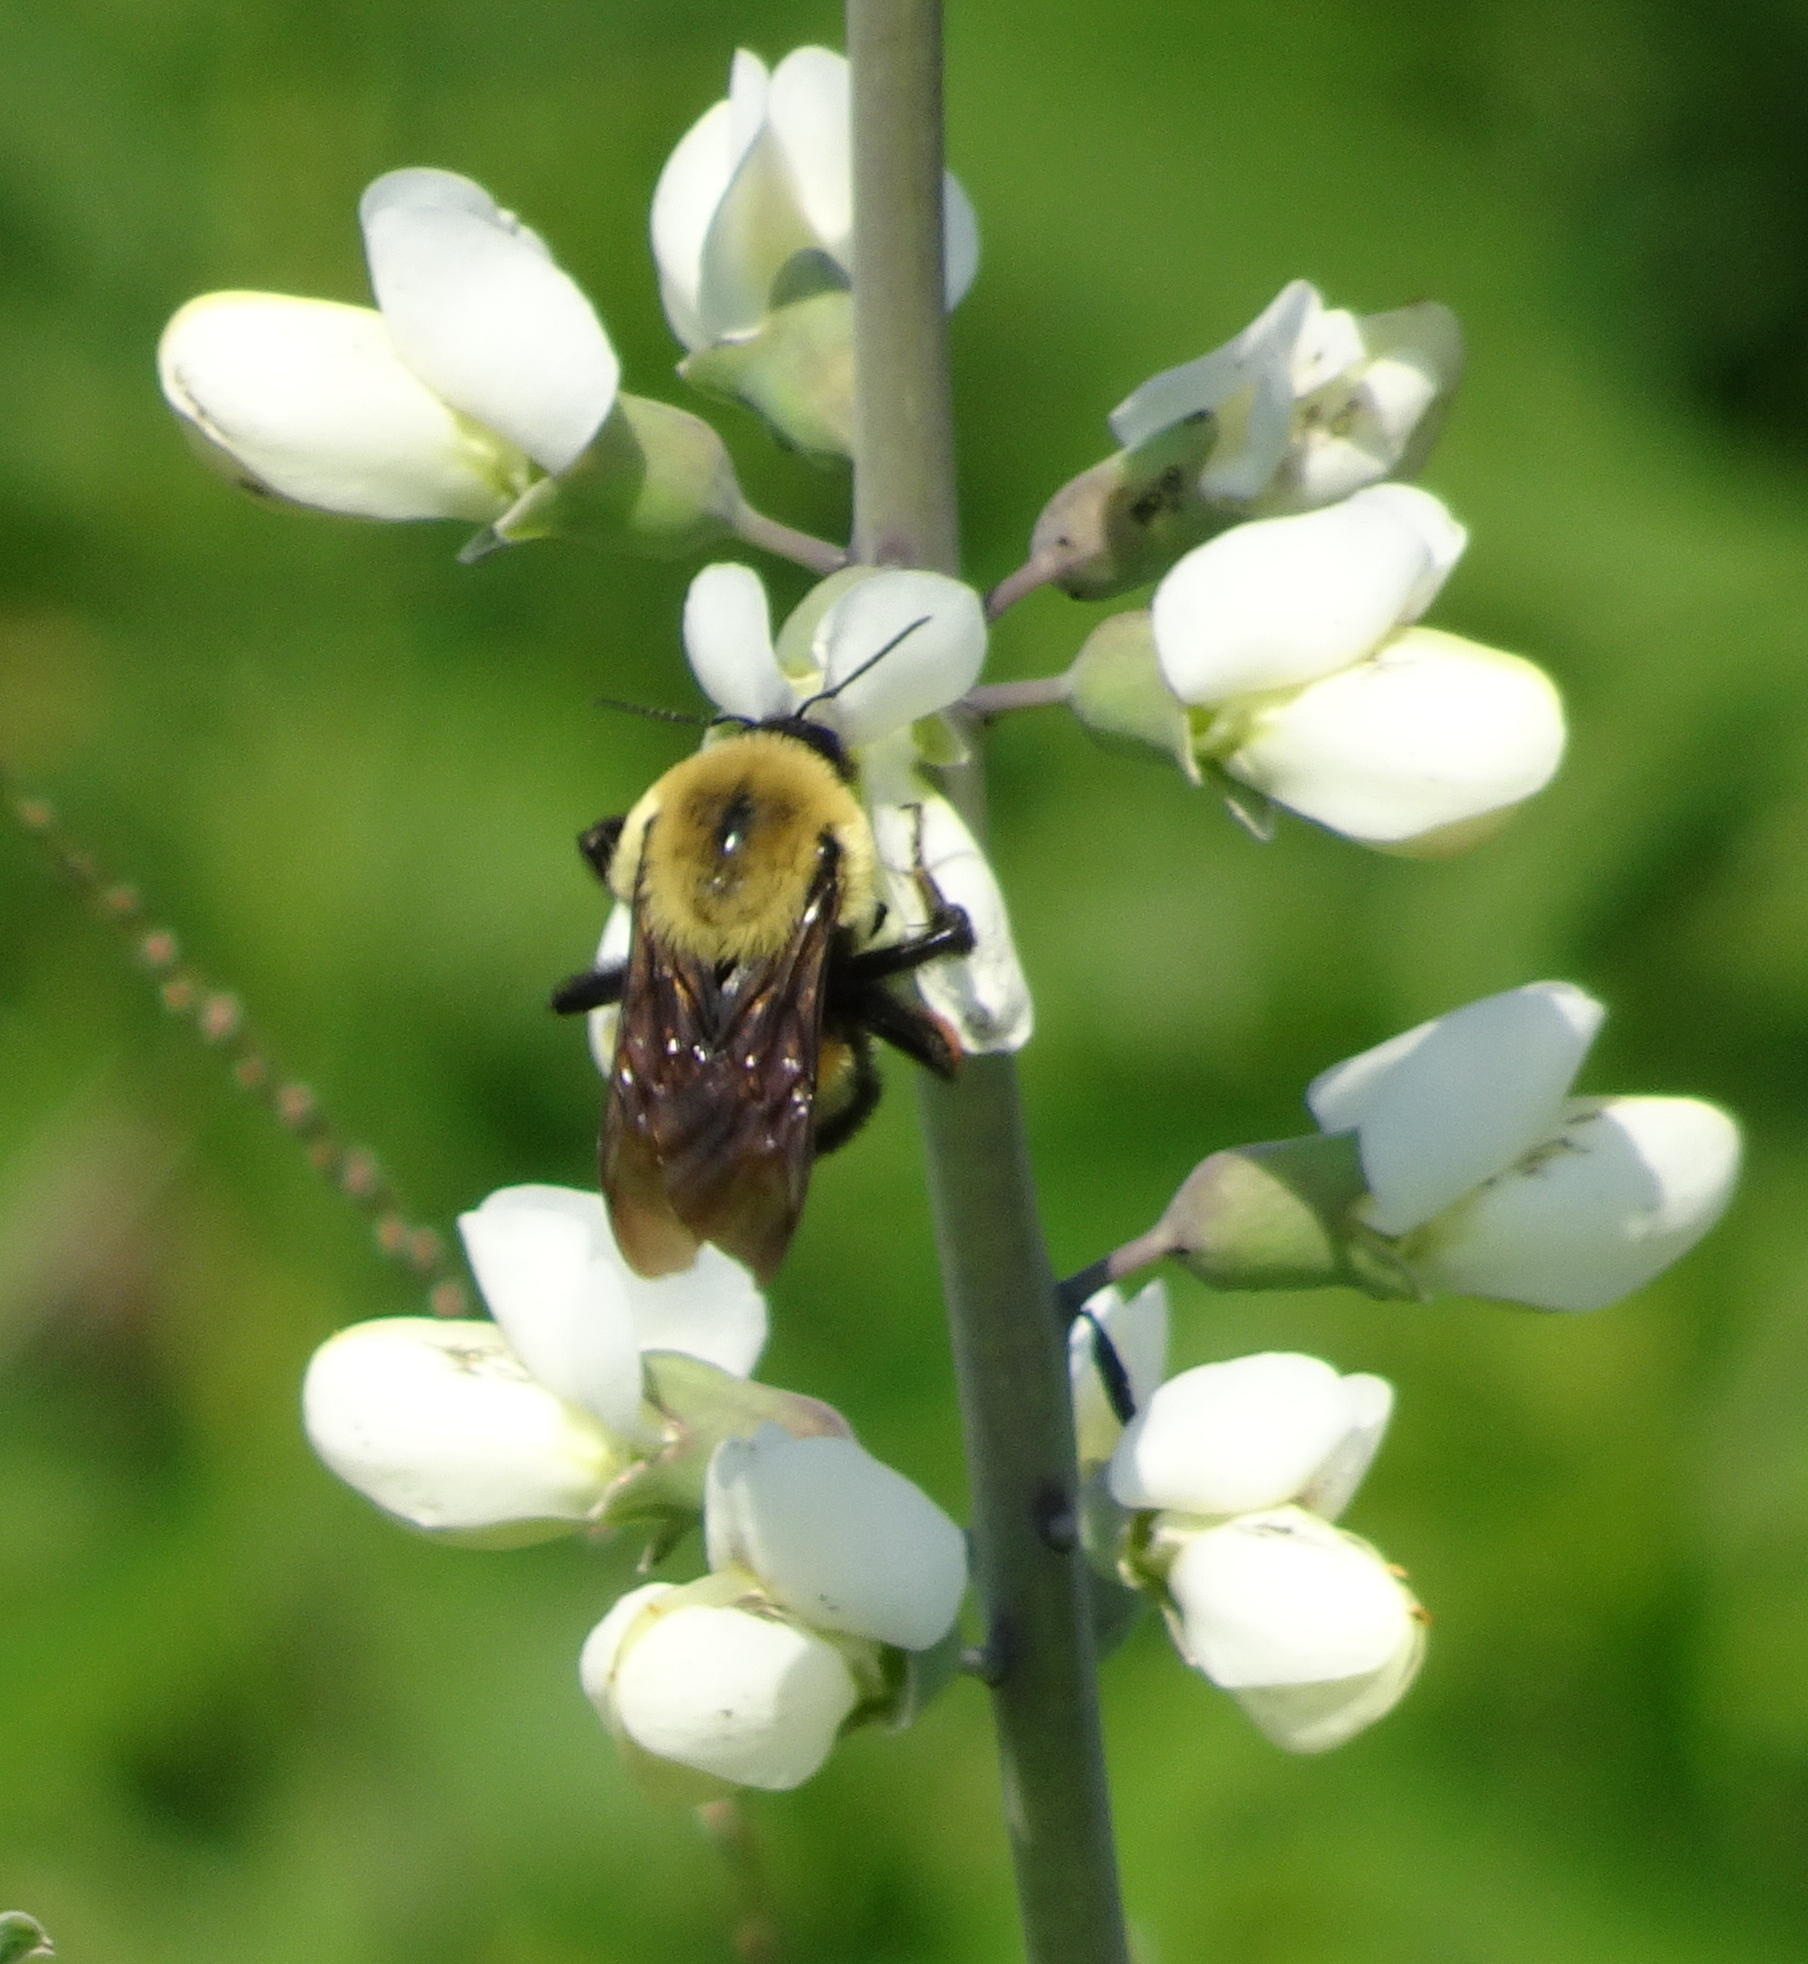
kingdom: Animalia
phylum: Arthropoda
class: Insecta
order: Hymenoptera
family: Apidae
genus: Bombus
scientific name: Bombus griseocollis
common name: Brown-belted bumble bee
